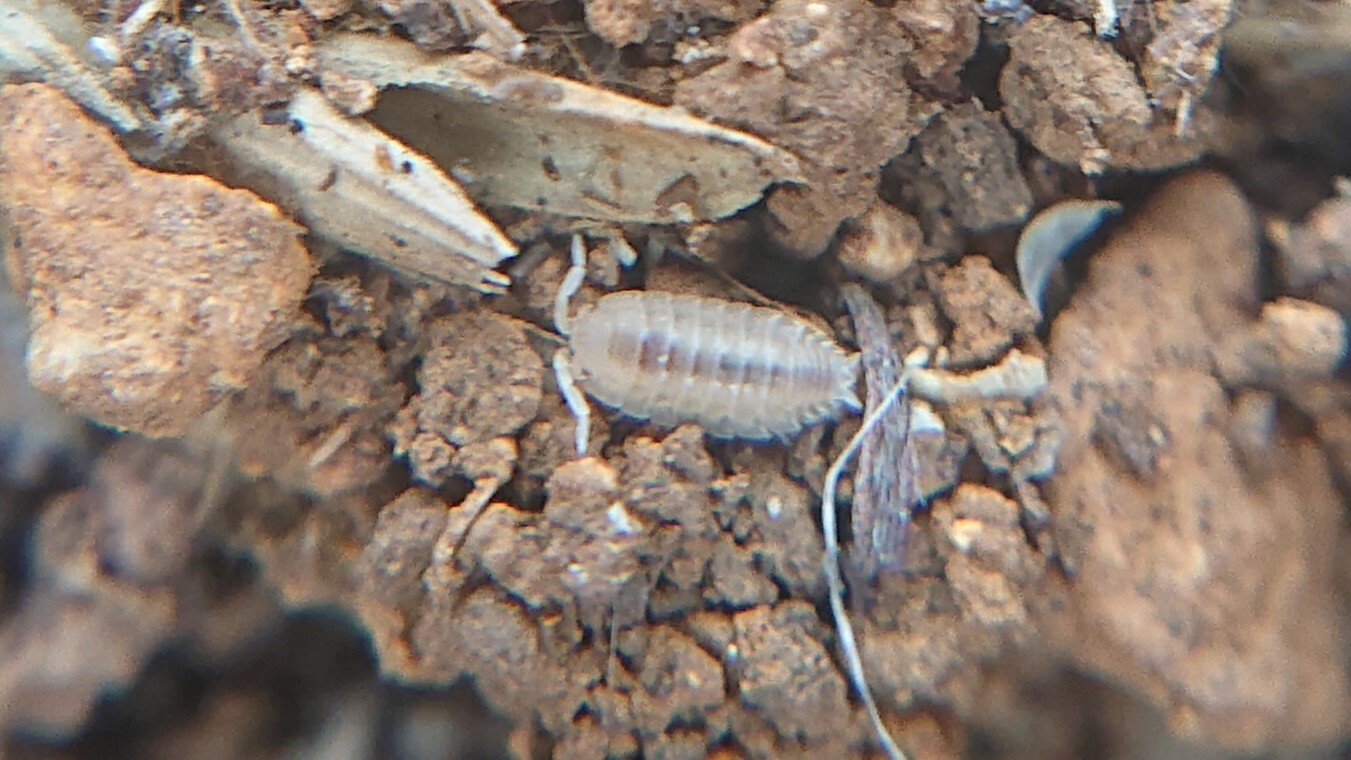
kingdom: Animalia
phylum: Arthropoda
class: Malacostraca
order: Isopoda
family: Porcellionidae
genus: Lucasius
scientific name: Lucasius pallidus
